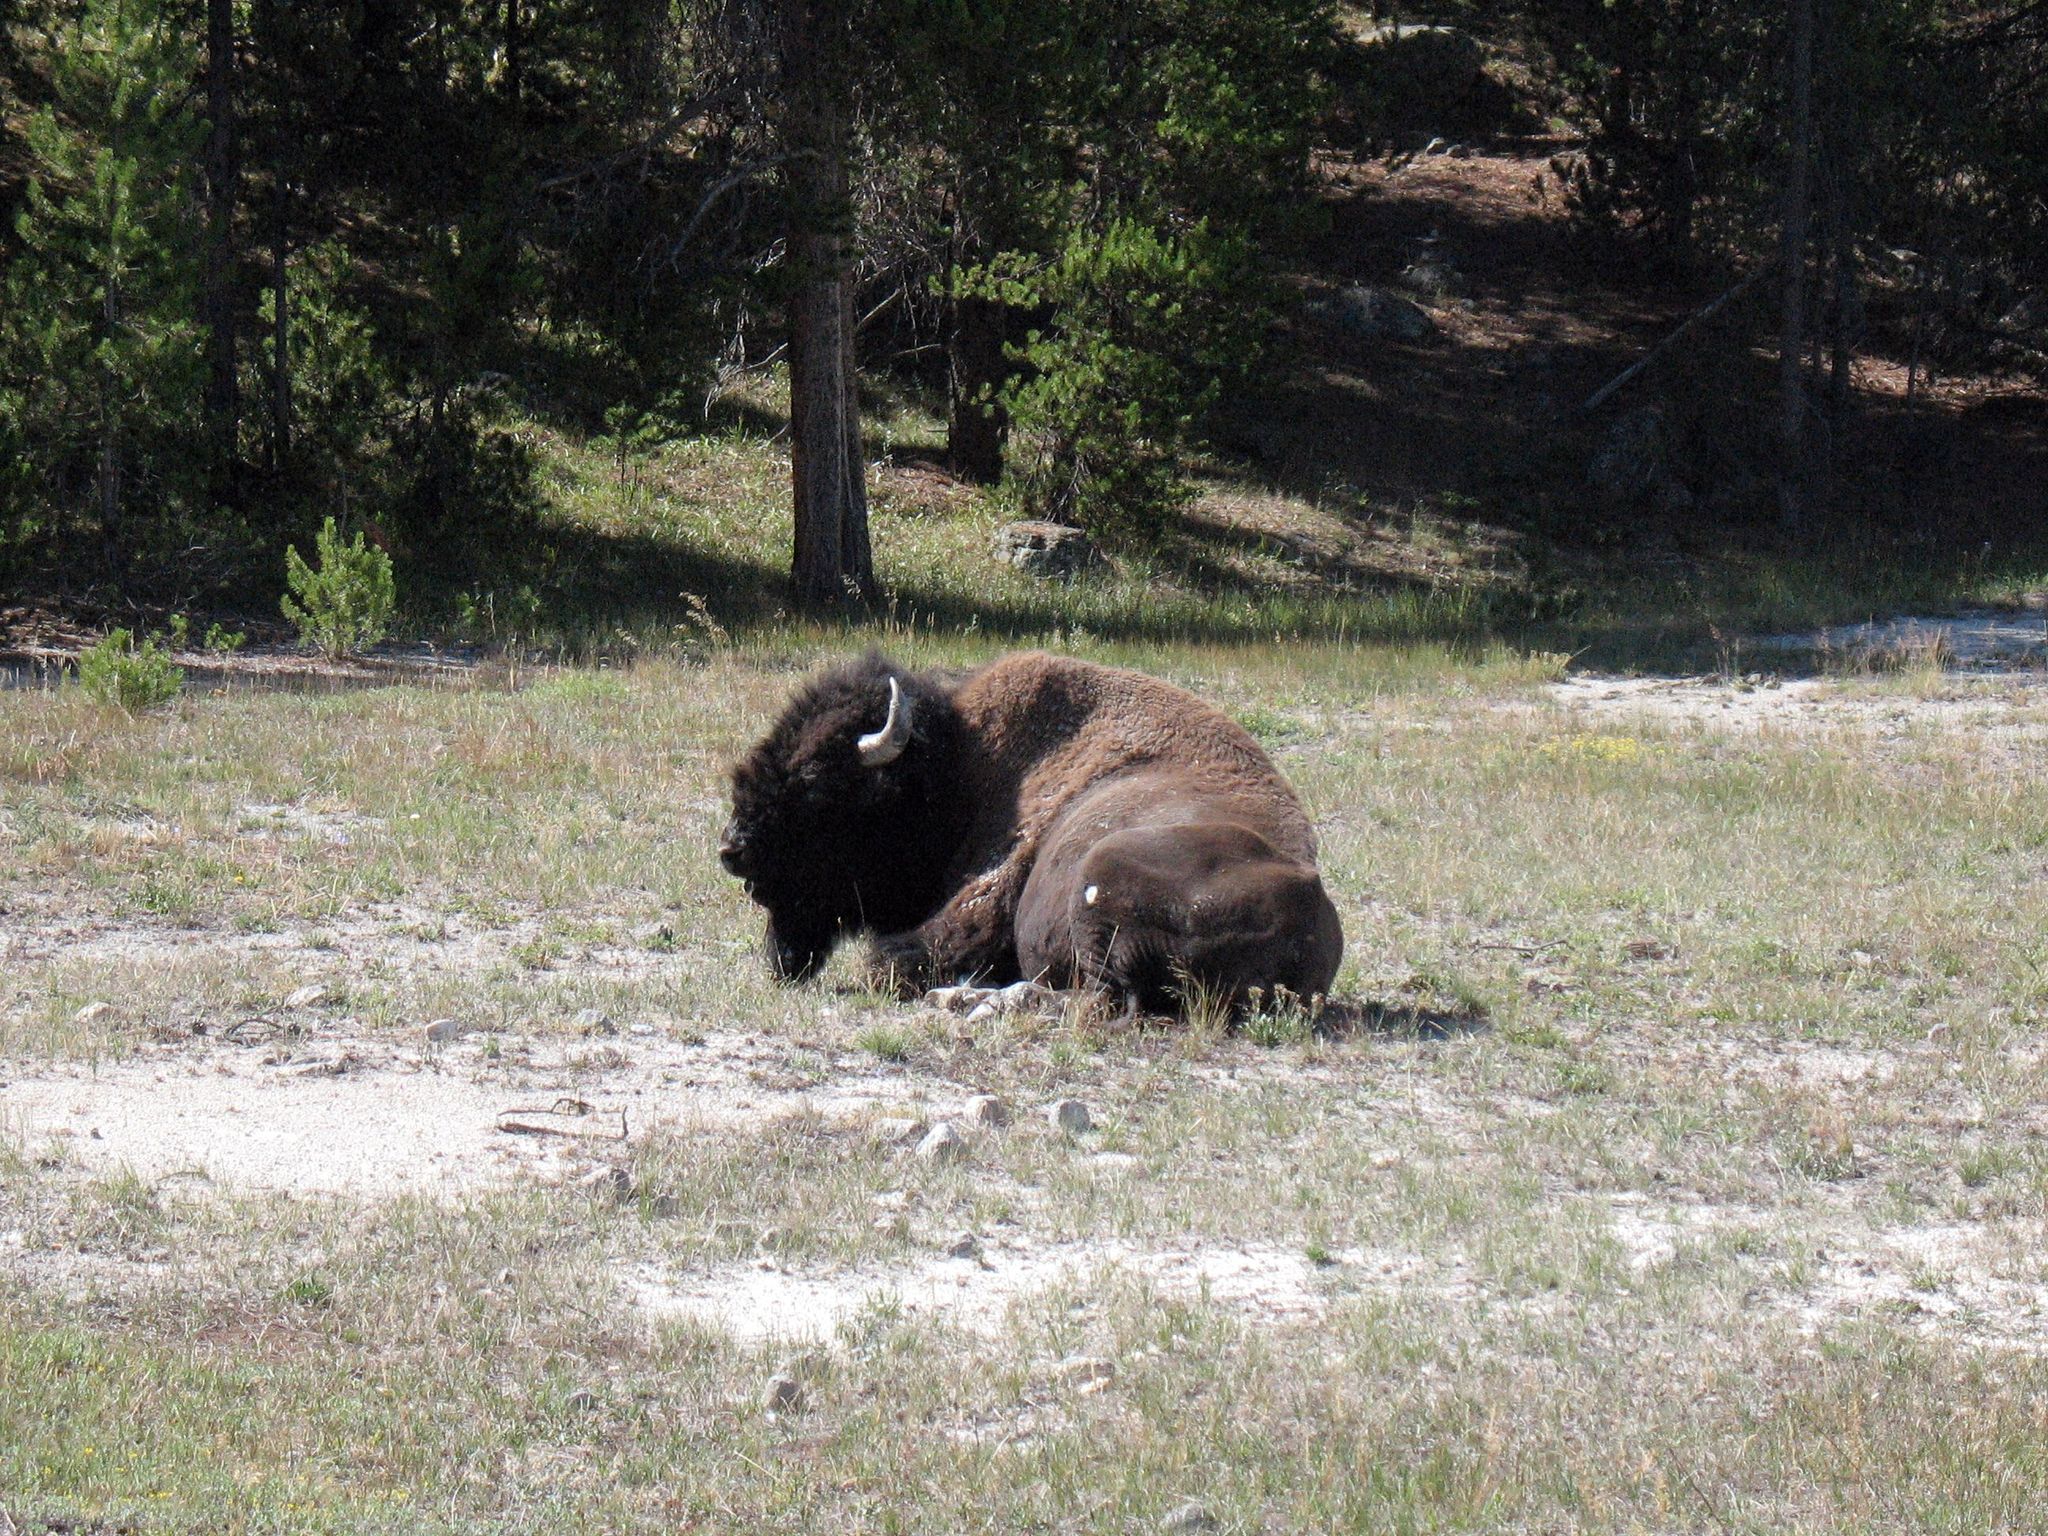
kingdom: Animalia
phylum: Chordata
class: Mammalia
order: Artiodactyla
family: Bovidae
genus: Bison
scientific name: Bison bison
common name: American bison
